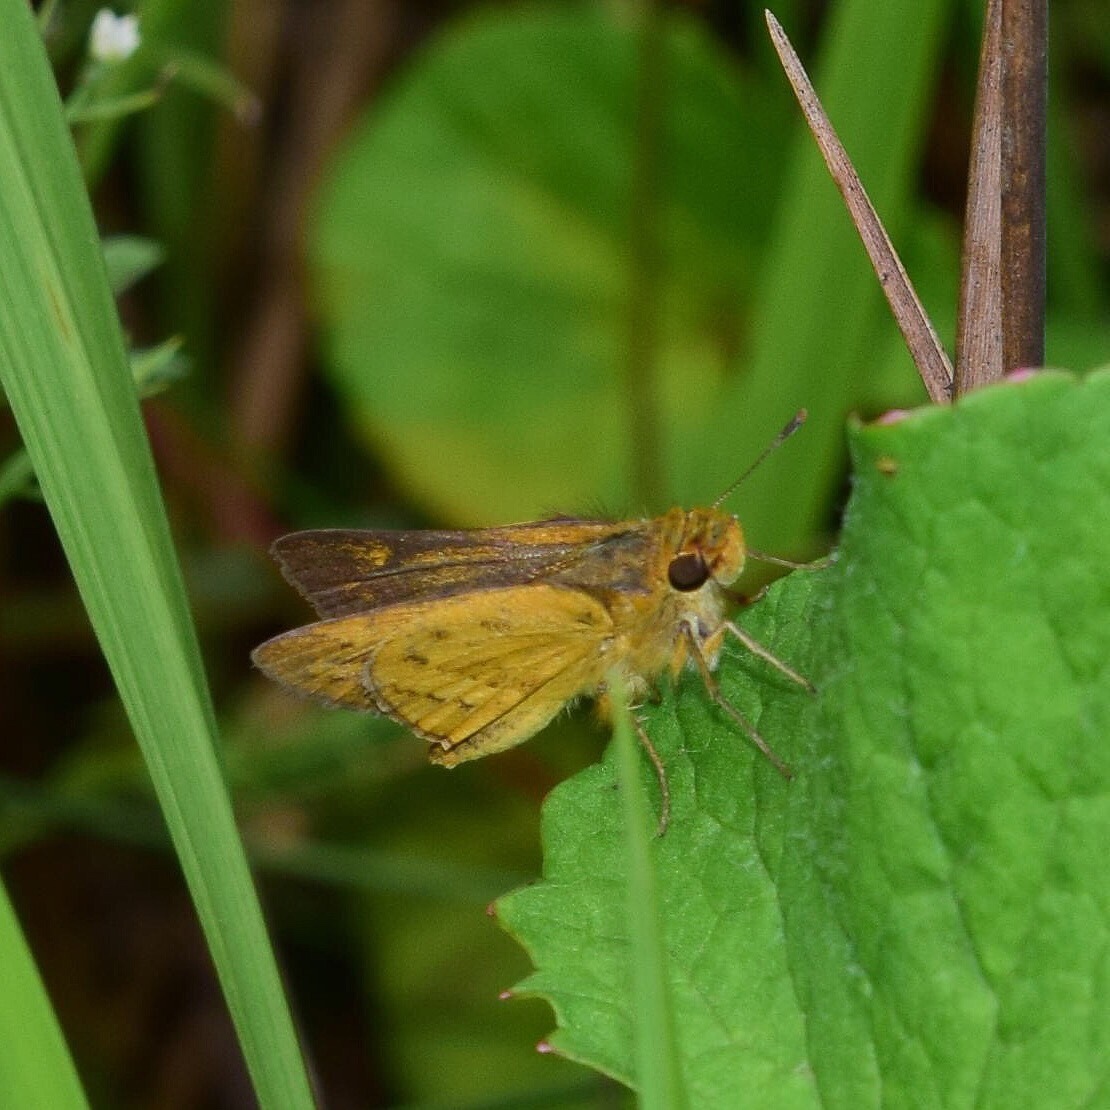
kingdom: Animalia
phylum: Arthropoda
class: Insecta
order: Hymenoptera
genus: Afrogenes
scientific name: Afrogenes
